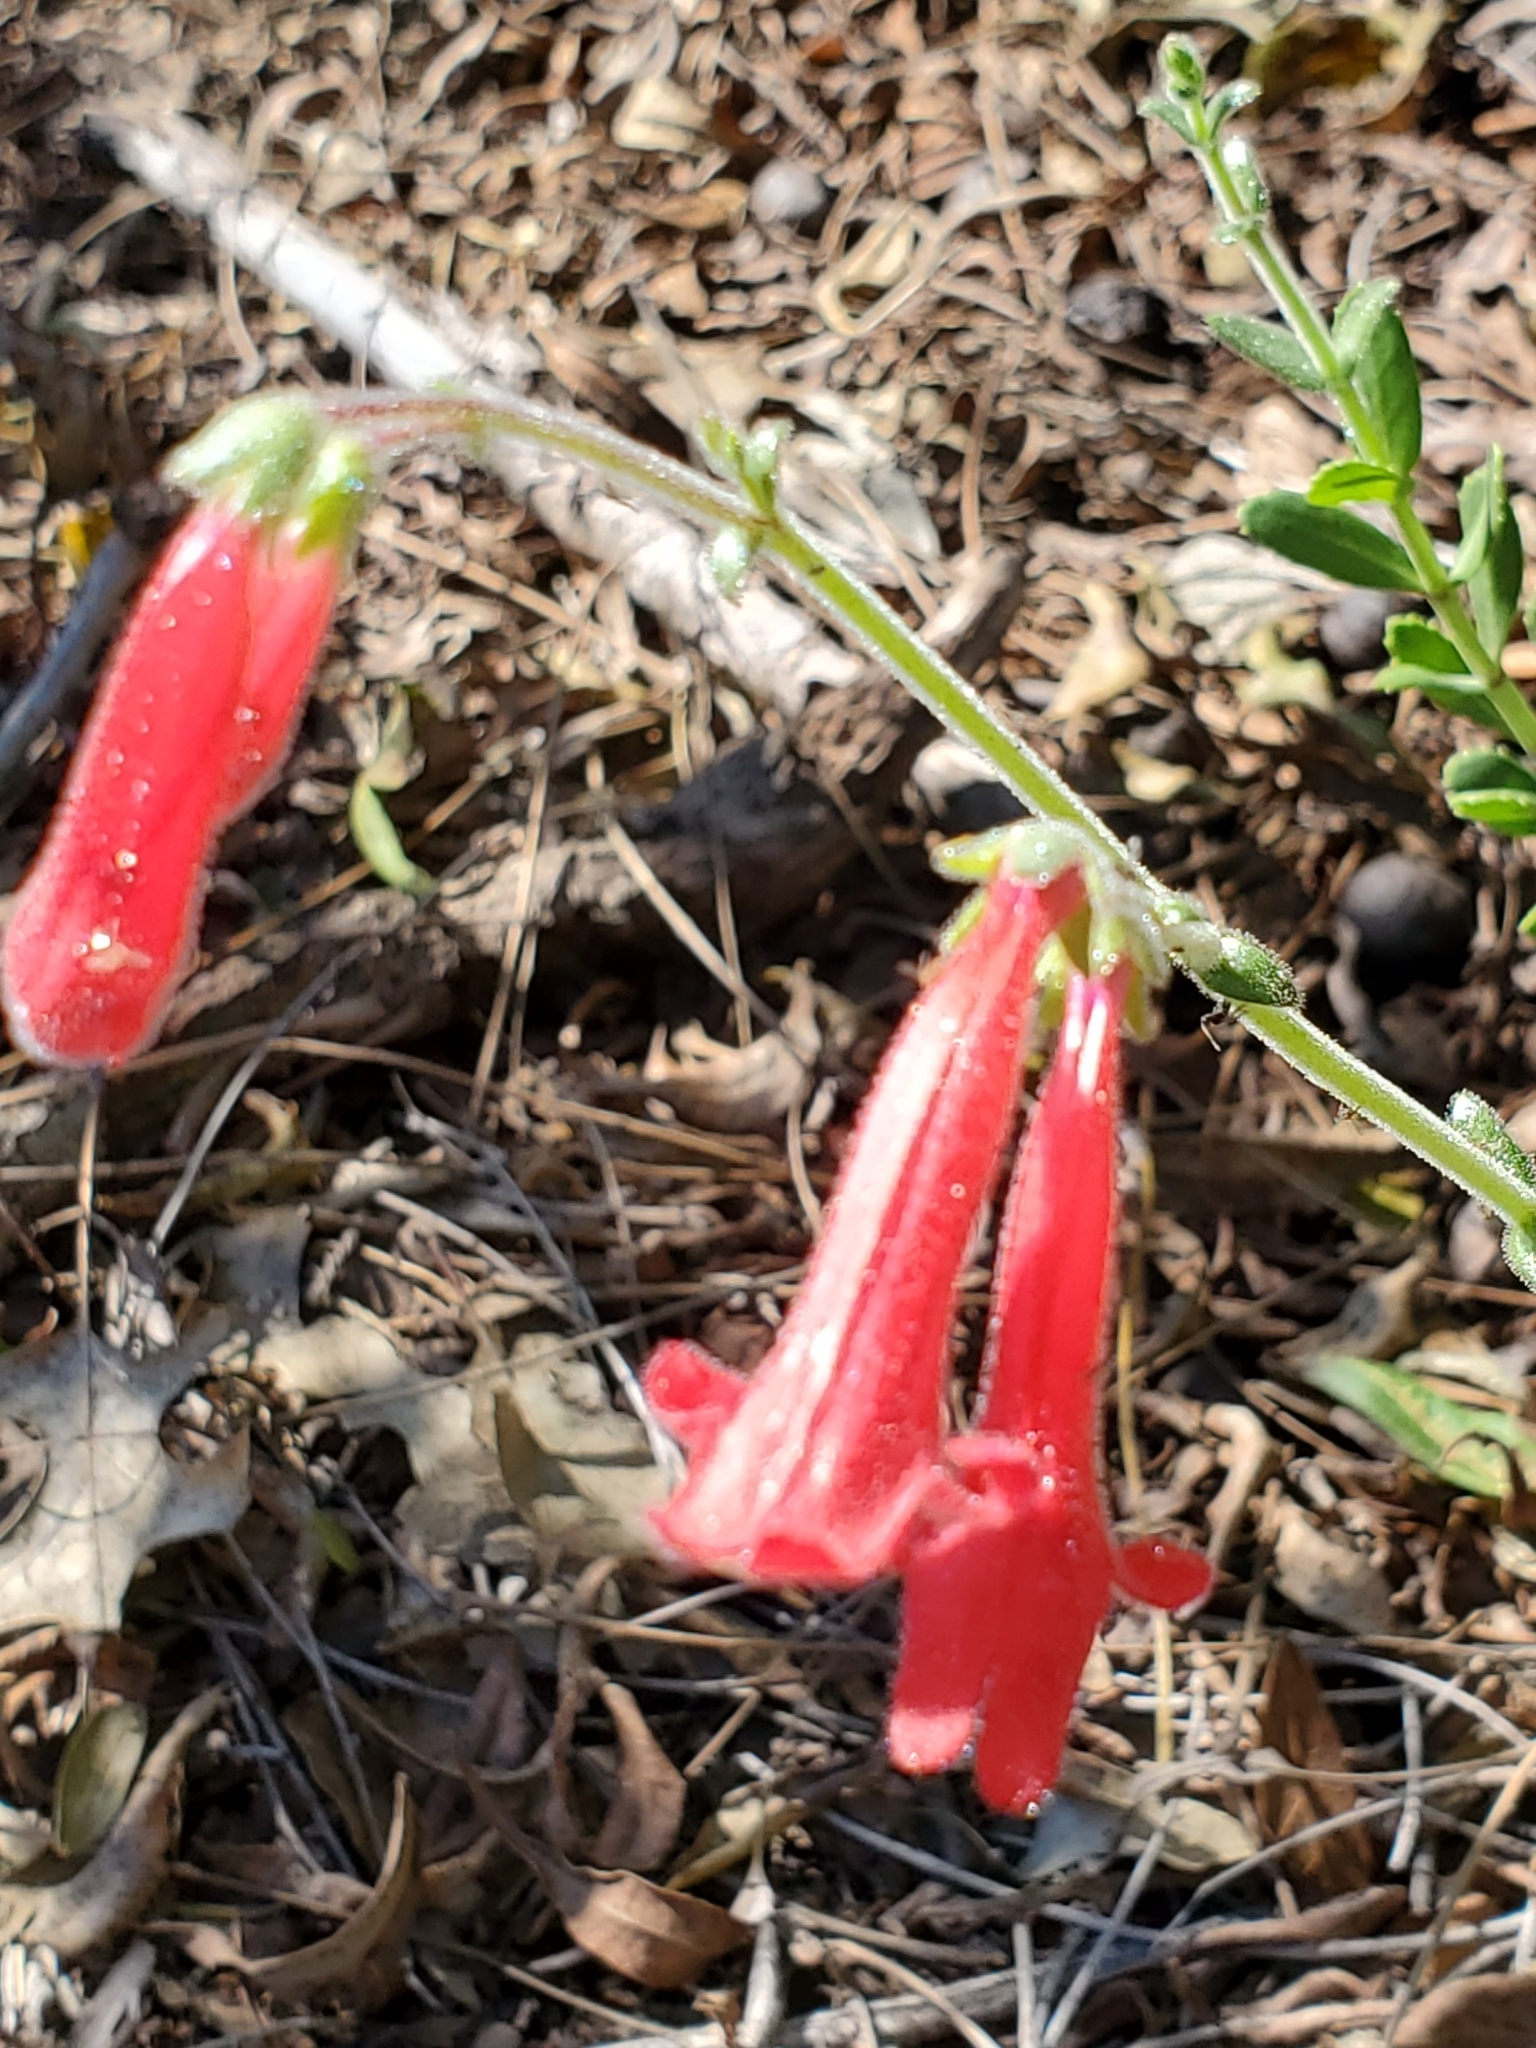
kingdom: Plantae
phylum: Tracheophyta
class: Magnoliopsida
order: Lamiales
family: Plantaginaceae
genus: Penstemon
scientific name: Penstemon baccharifolius
